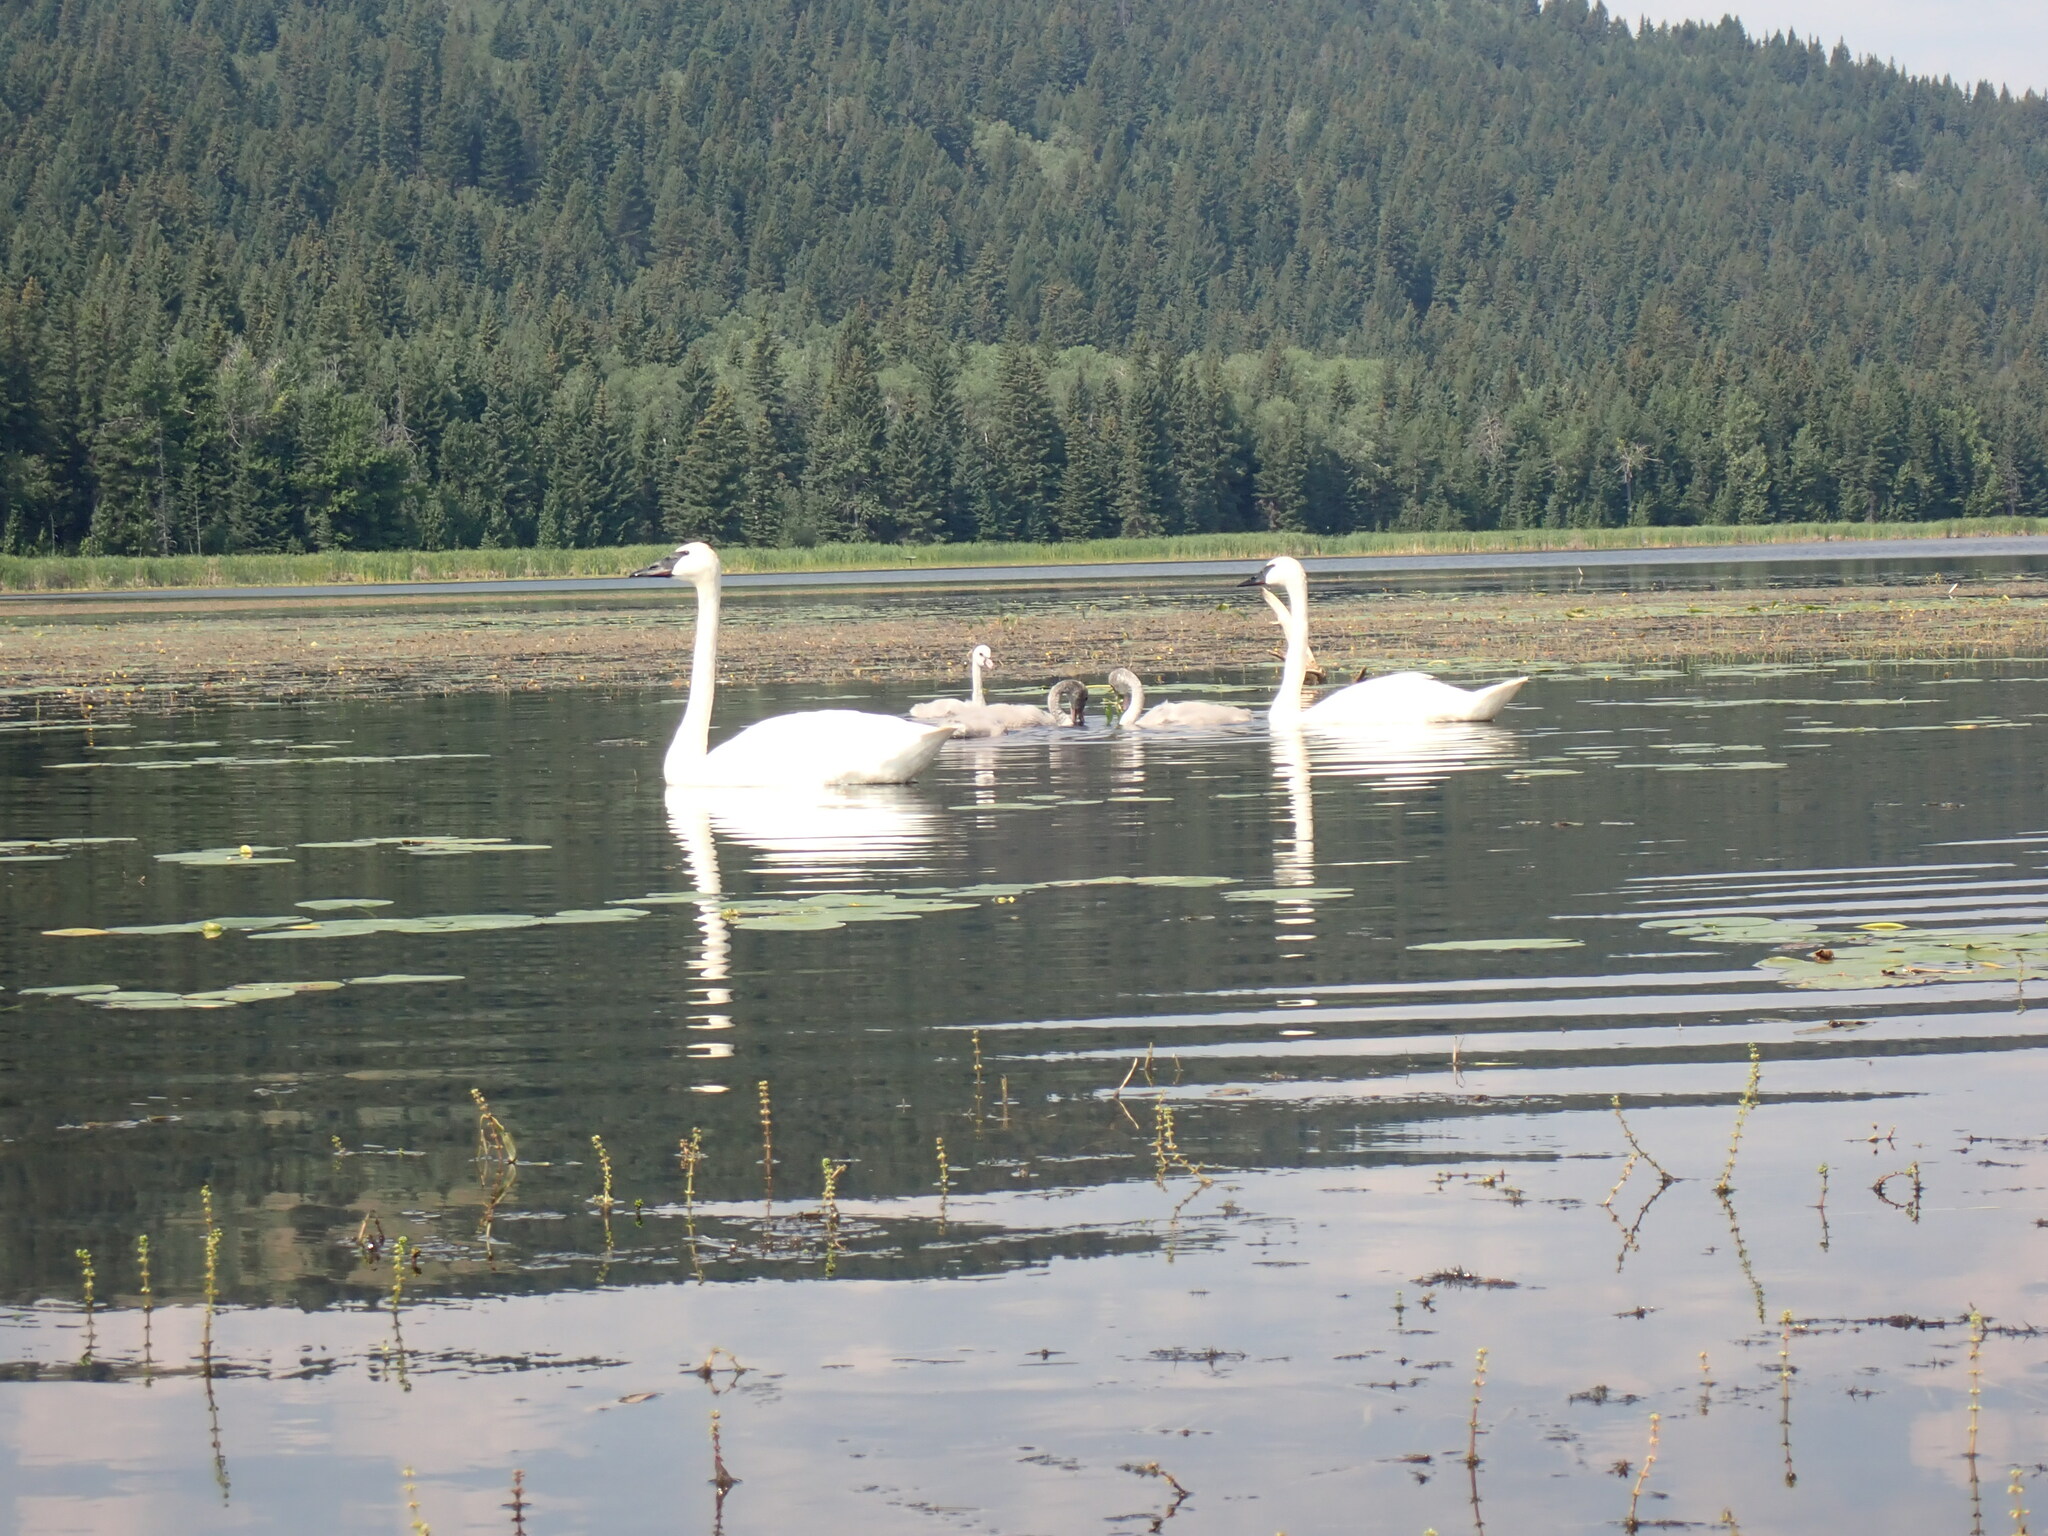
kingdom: Animalia
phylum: Chordata
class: Aves
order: Anseriformes
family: Anatidae
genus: Cygnus
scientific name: Cygnus buccinator
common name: Trumpeter swan
